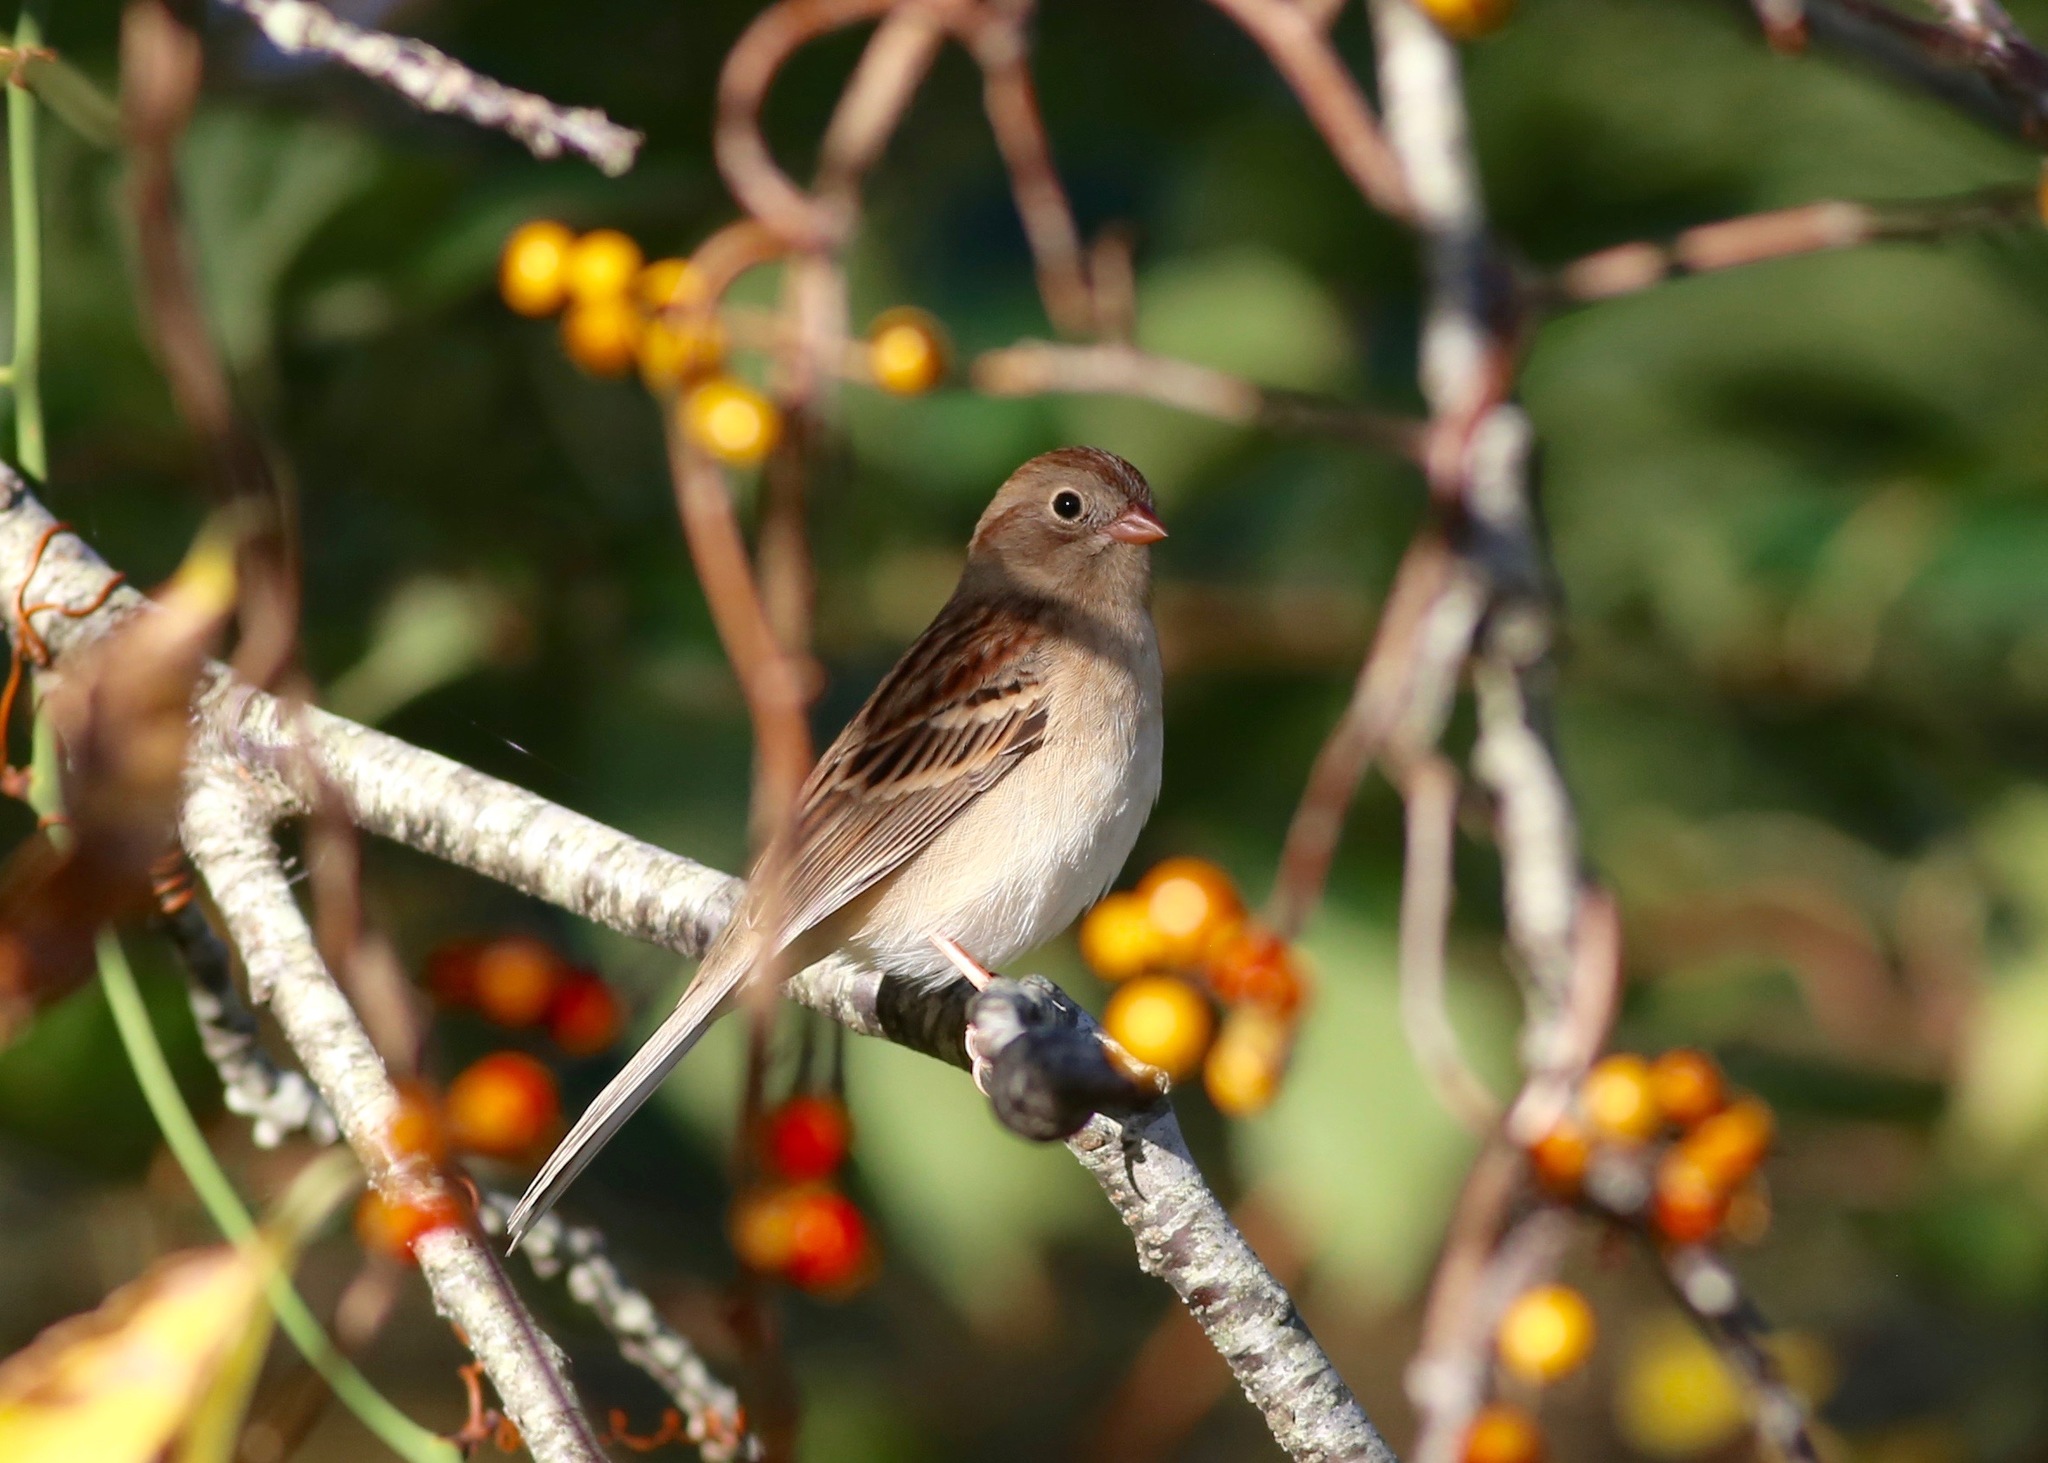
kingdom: Animalia
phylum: Chordata
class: Aves
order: Passeriformes
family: Passerellidae
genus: Spizella
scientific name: Spizella pusilla
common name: Field sparrow
